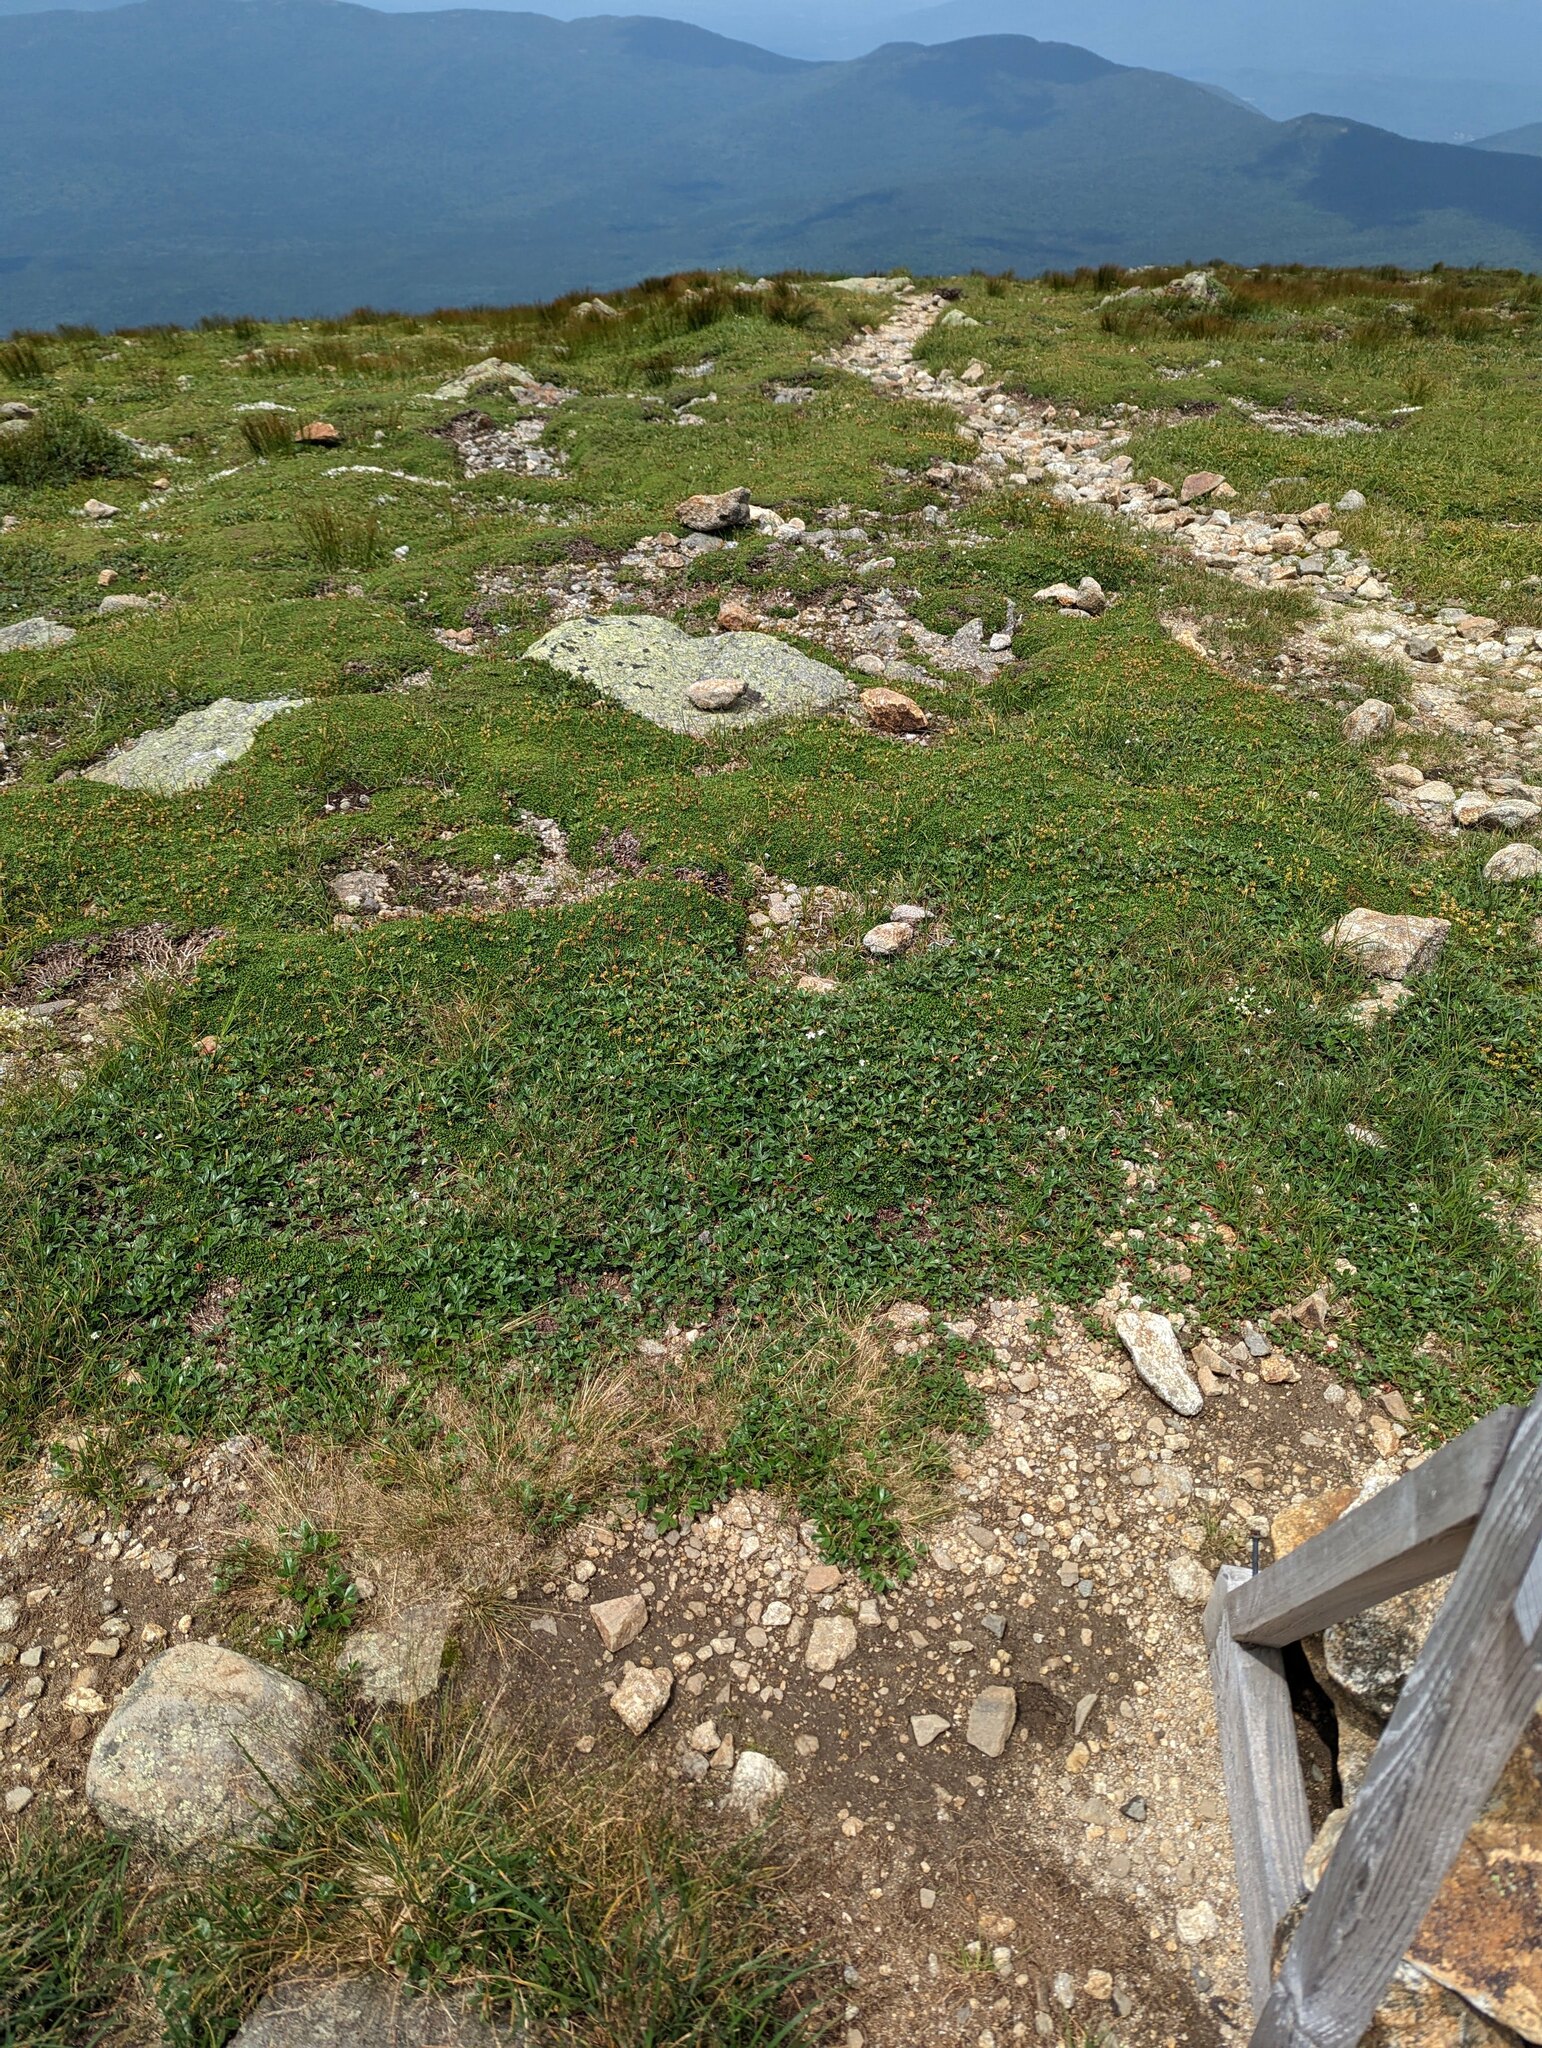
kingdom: Plantae
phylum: Tracheophyta
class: Magnoliopsida
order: Rosales
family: Rosaceae
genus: Sibbaldia
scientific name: Sibbaldia tridentata
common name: Three-toothed cinquefoil
